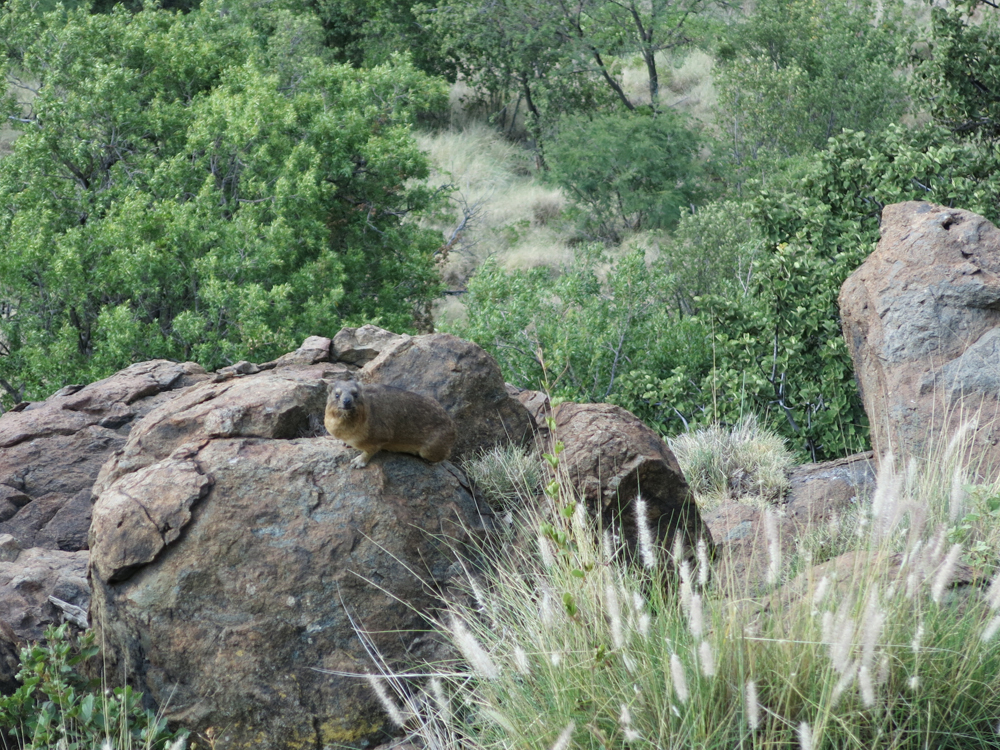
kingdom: Animalia
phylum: Chordata
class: Mammalia
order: Hyracoidea
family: Procaviidae
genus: Procavia
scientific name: Procavia capensis
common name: Rock hyrax
